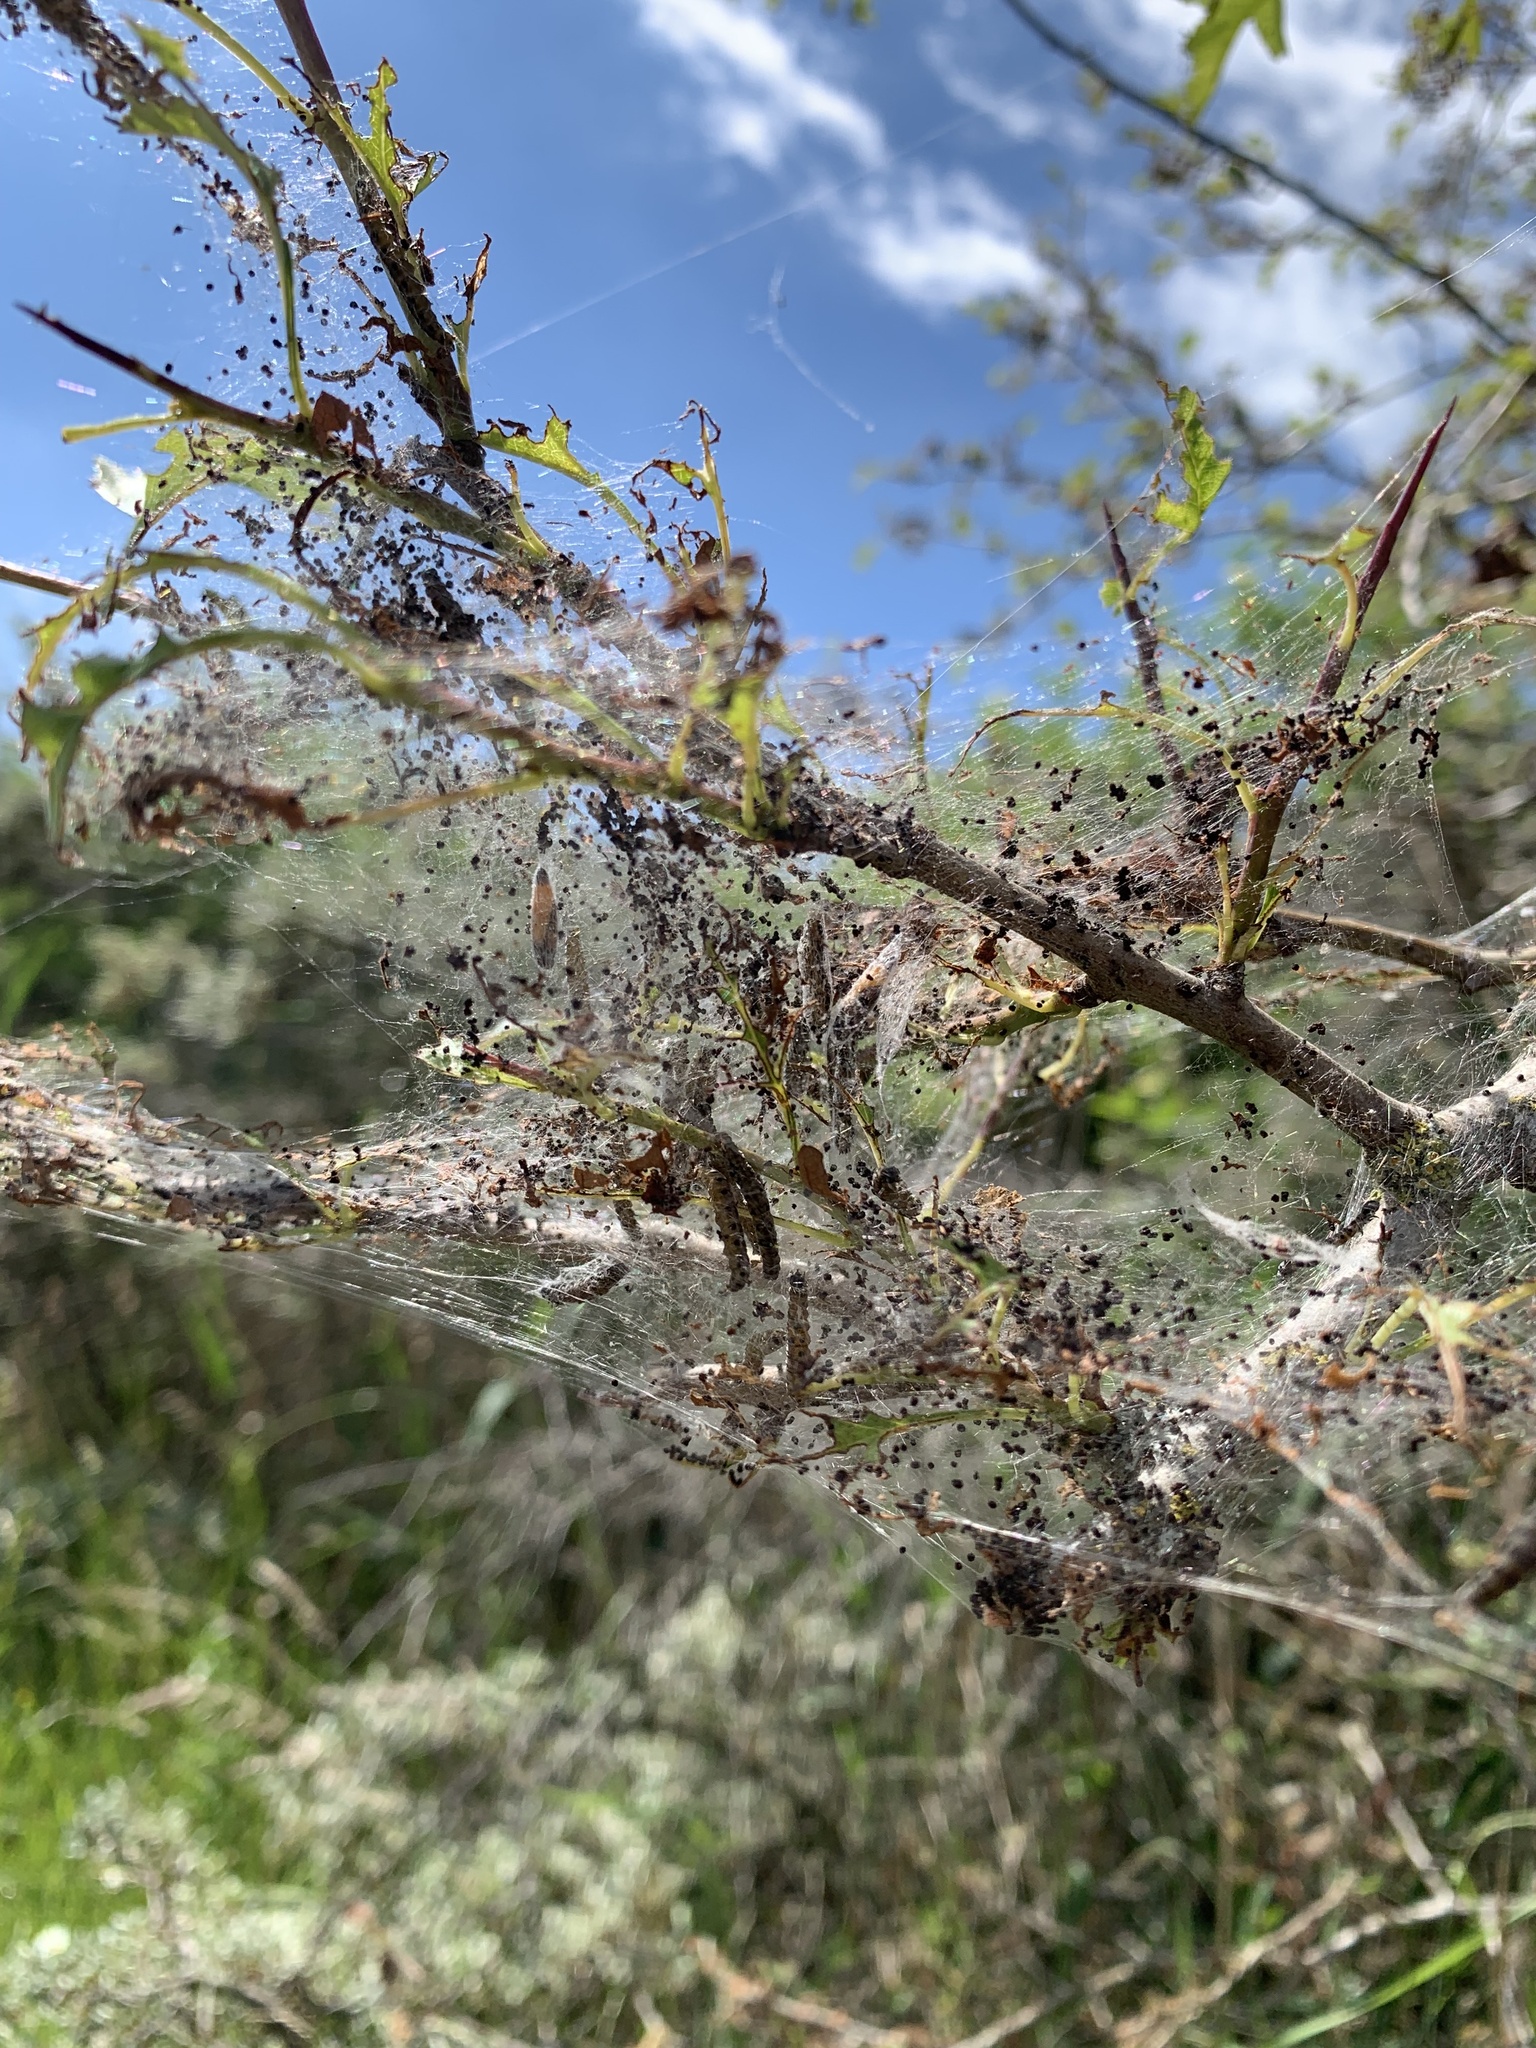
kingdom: Animalia
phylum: Arthropoda
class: Insecta
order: Lepidoptera
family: Yponomeutidae
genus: Yponomeuta
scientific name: Yponomeuta padella
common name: Orchard ermine
